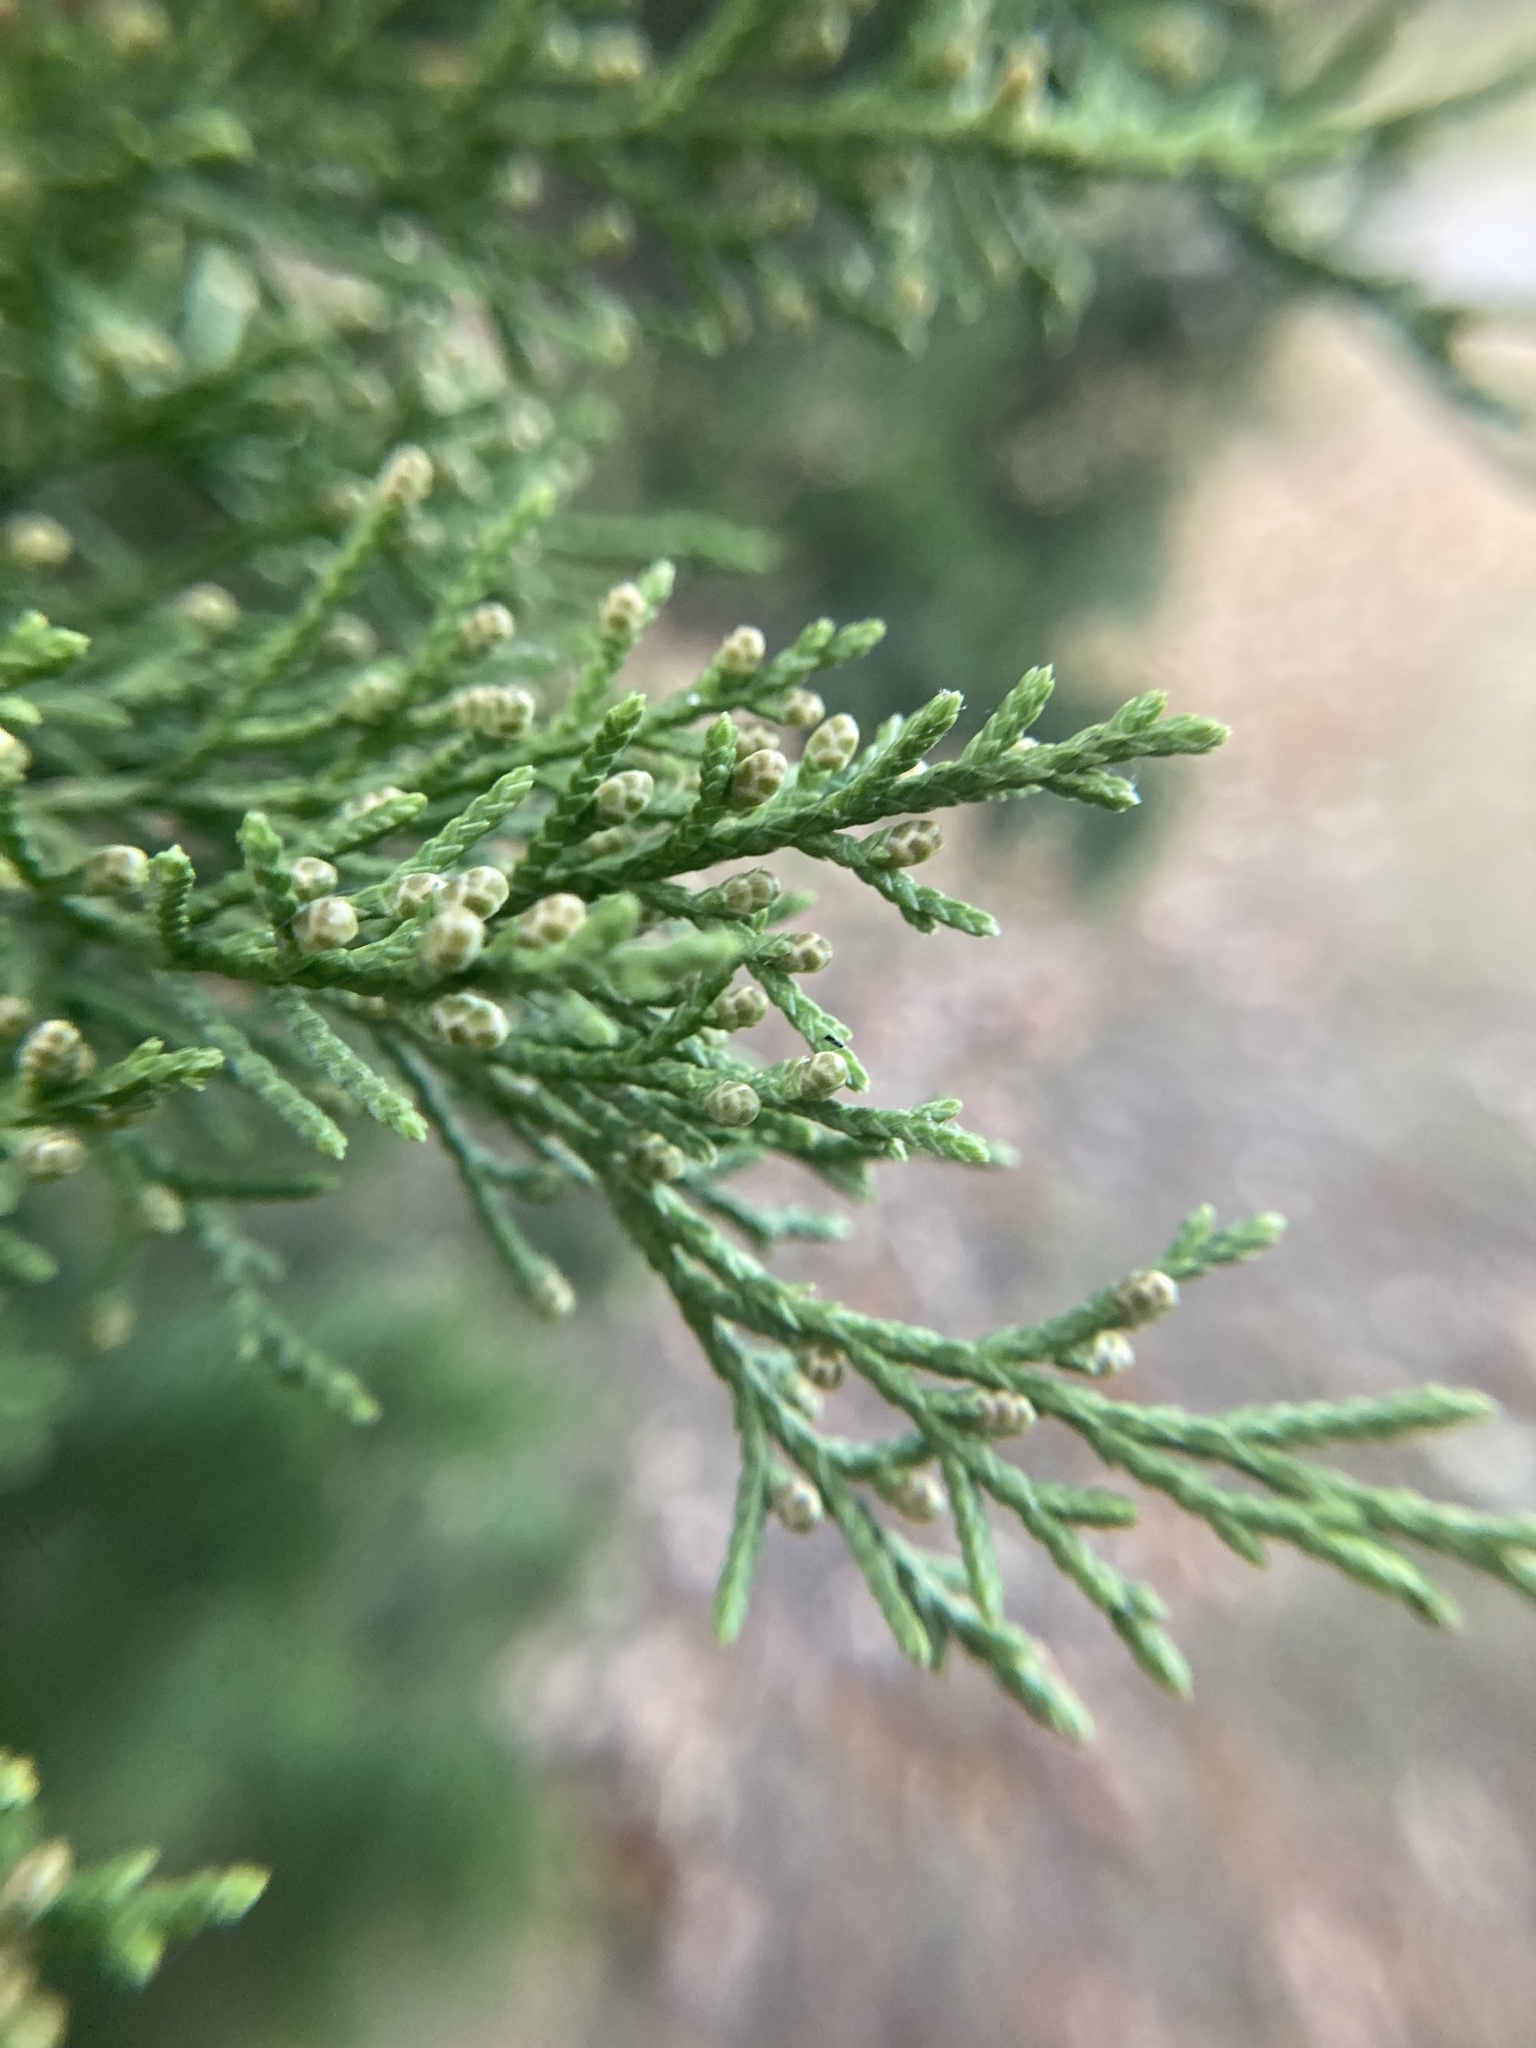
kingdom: Plantae
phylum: Tracheophyta
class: Pinopsida
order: Pinales
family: Cupressaceae
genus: Juniperus
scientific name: Juniperus virginiana
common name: Red juniper
